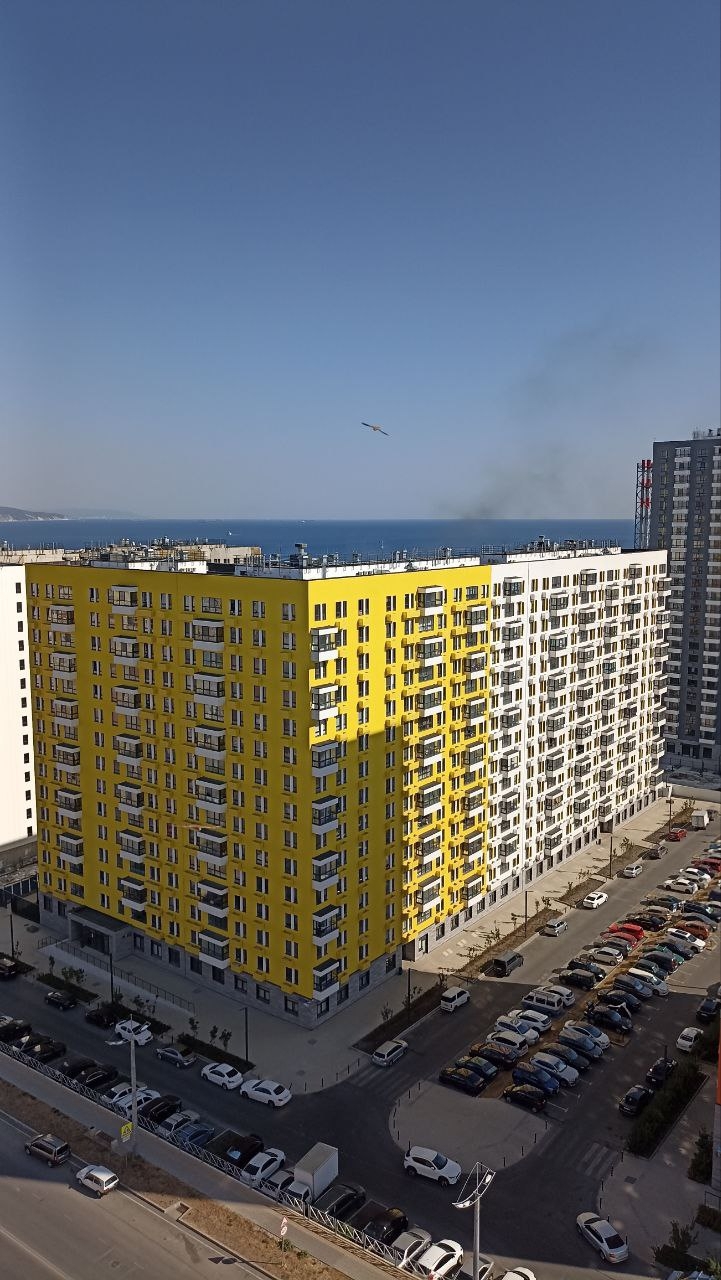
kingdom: Animalia
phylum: Chordata
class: Aves
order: Falconiformes
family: Falconidae
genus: Falco
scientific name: Falco tinnunculus
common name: Common kestrel
